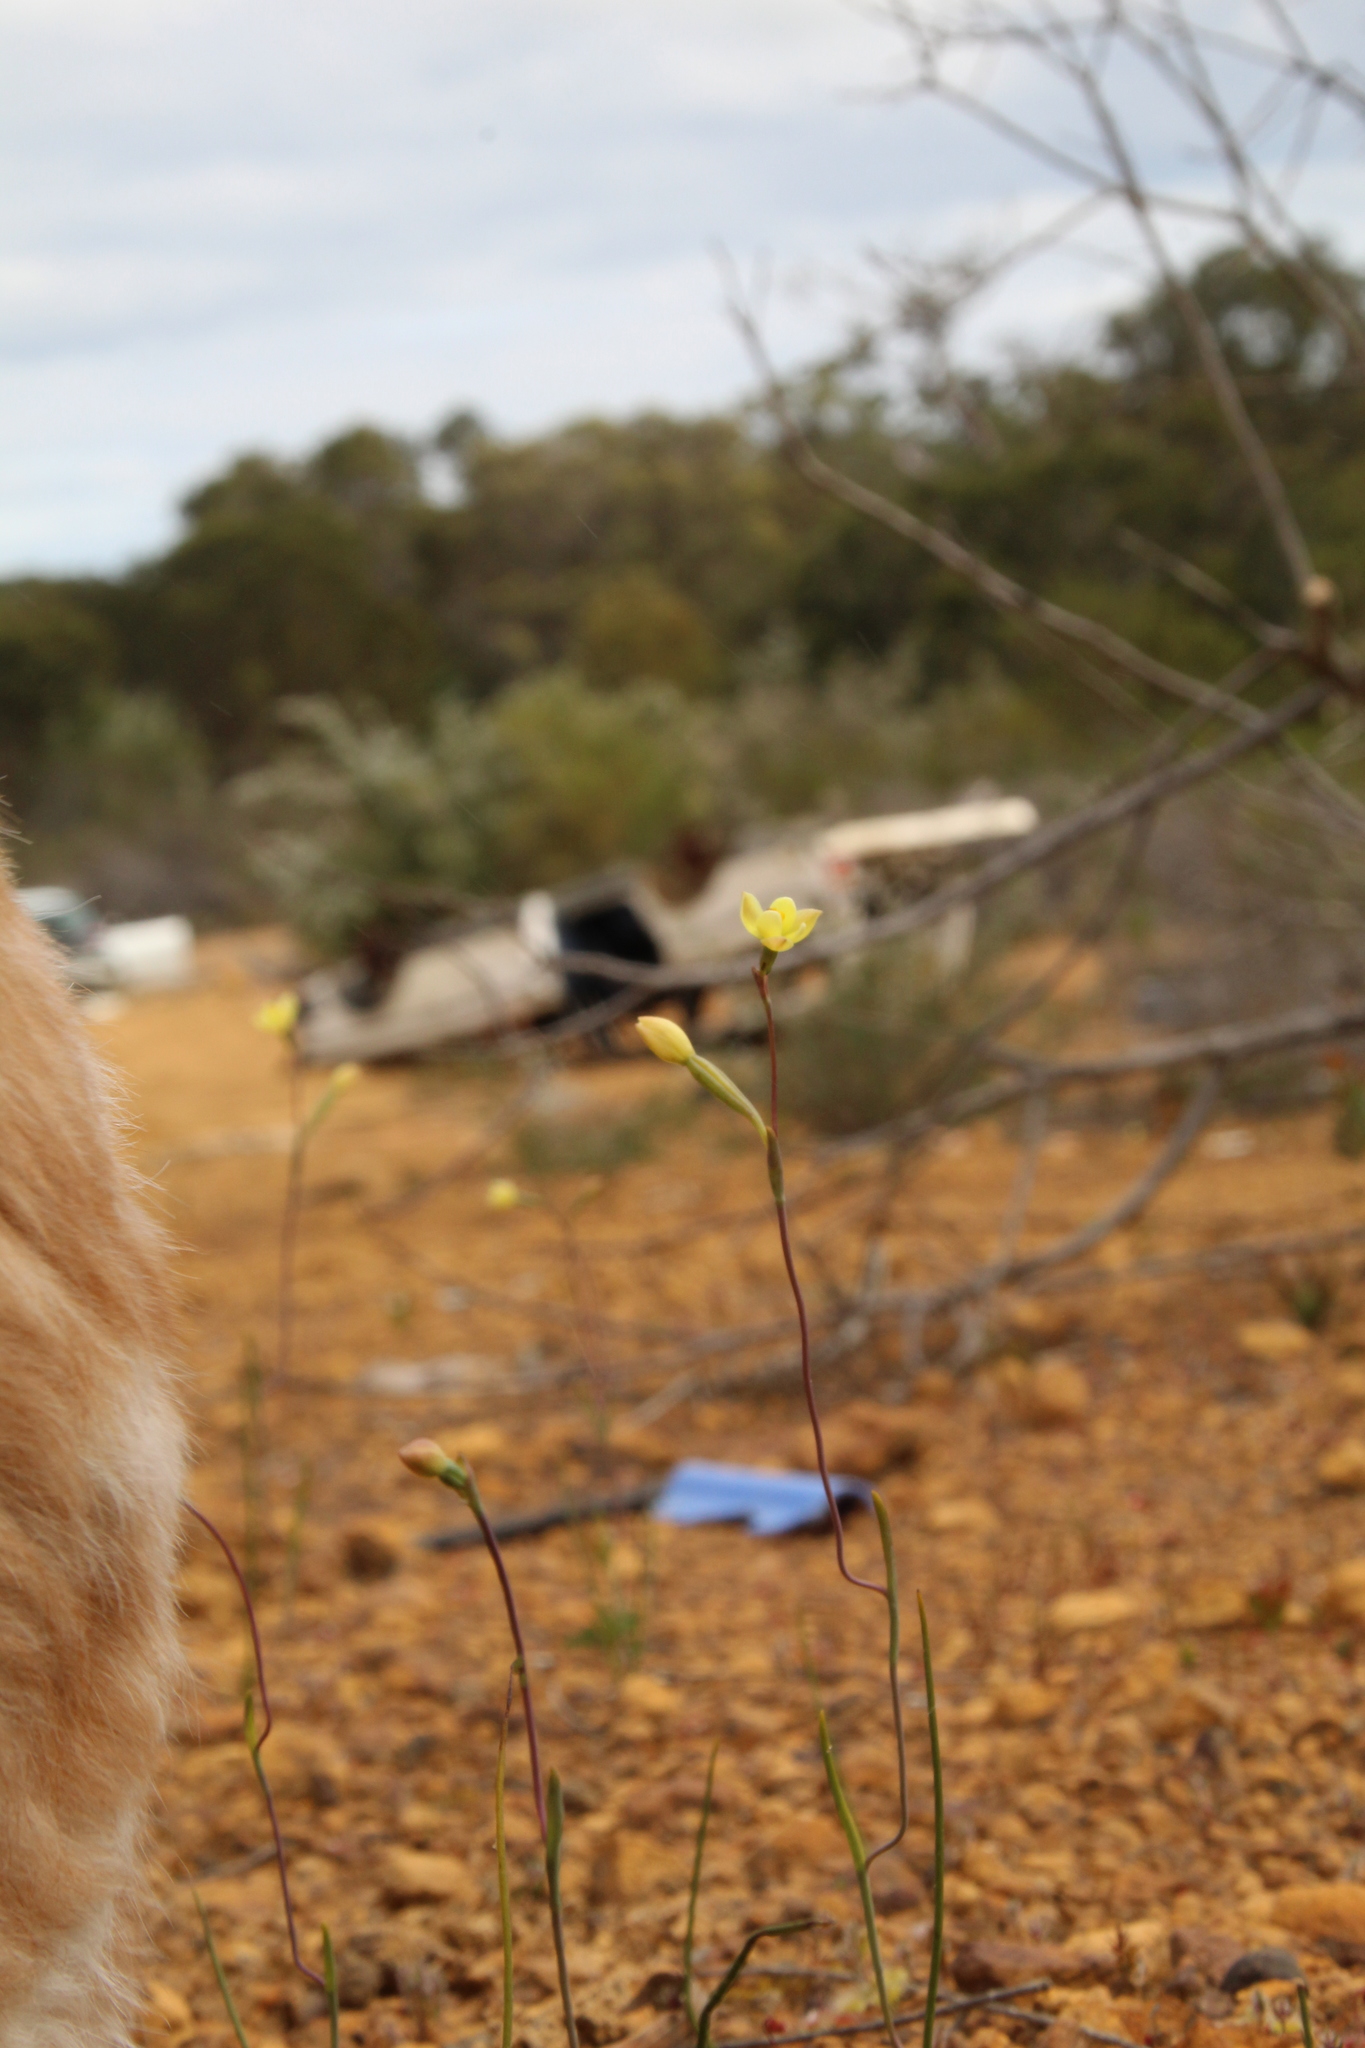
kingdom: Plantae
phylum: Tracheophyta
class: Liliopsida
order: Asparagales
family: Orchidaceae
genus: Thelymitra
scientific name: Thelymitra flexuosa
